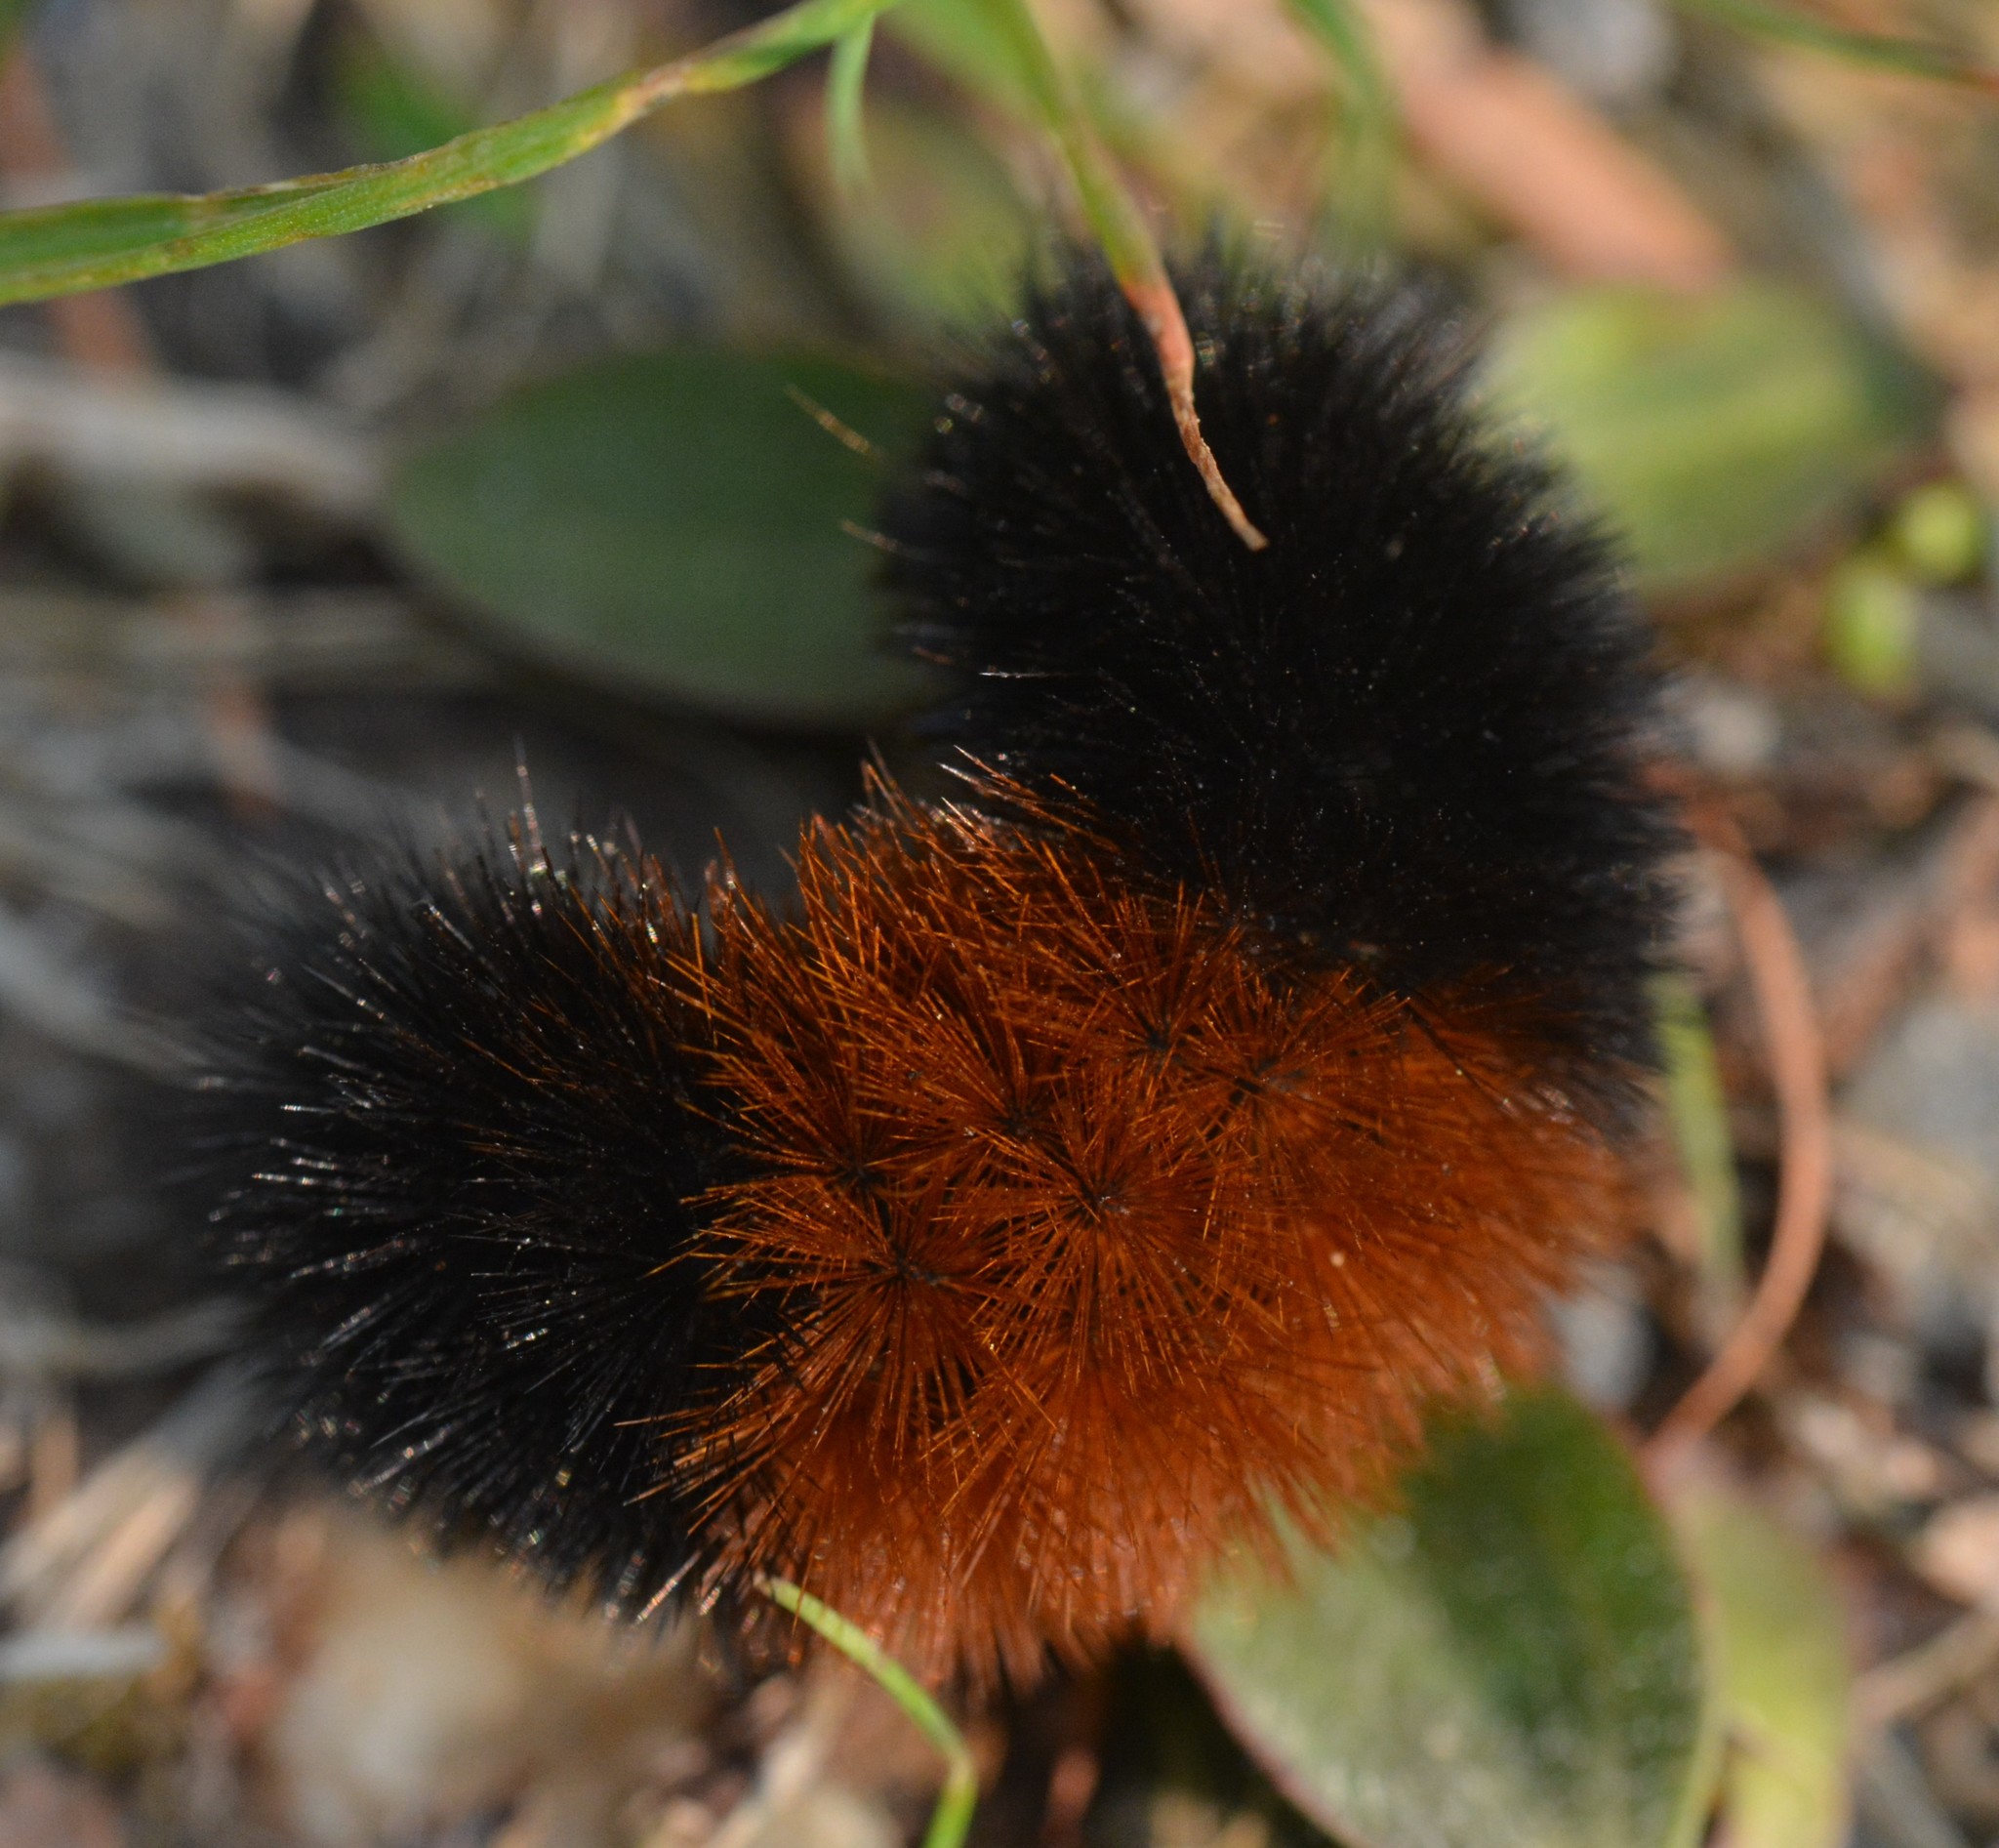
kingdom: Animalia
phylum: Arthropoda
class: Insecta
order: Lepidoptera
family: Erebidae
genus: Pyrrharctia
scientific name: Pyrrharctia isabella
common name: Isabella tiger moth
